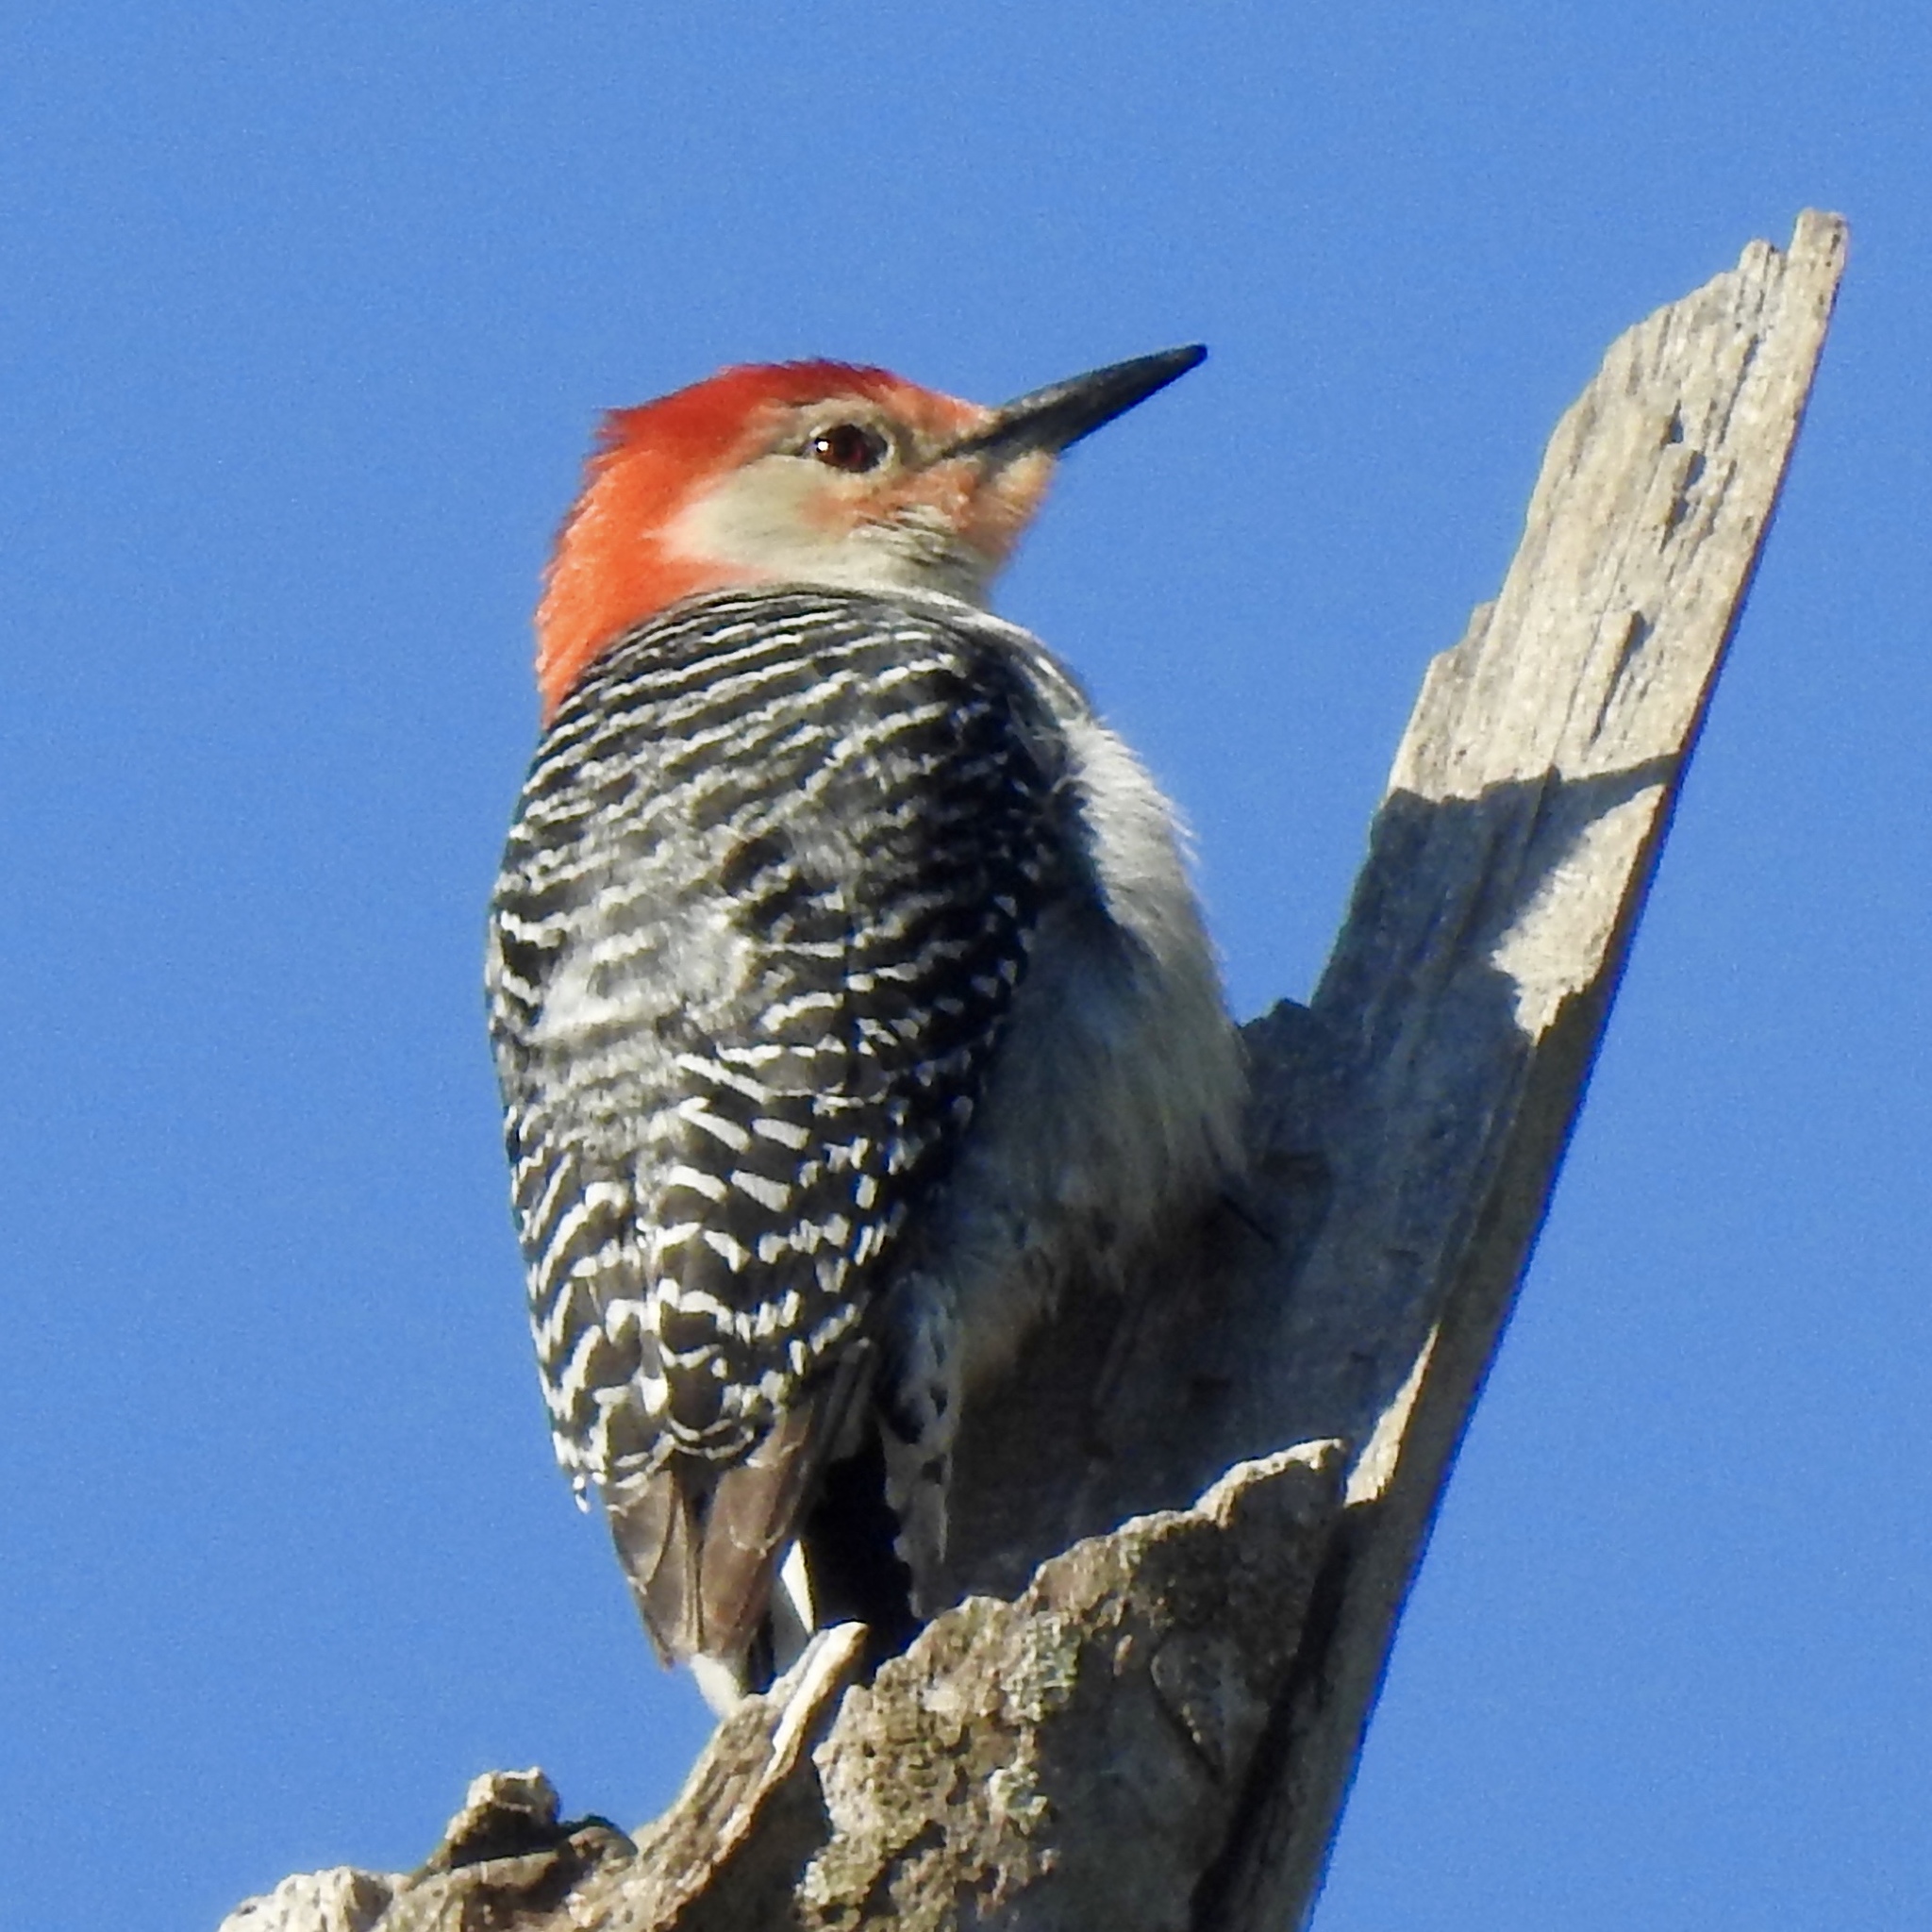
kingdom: Animalia
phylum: Chordata
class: Aves
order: Piciformes
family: Picidae
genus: Melanerpes
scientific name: Melanerpes carolinus
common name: Red-bellied woodpecker
